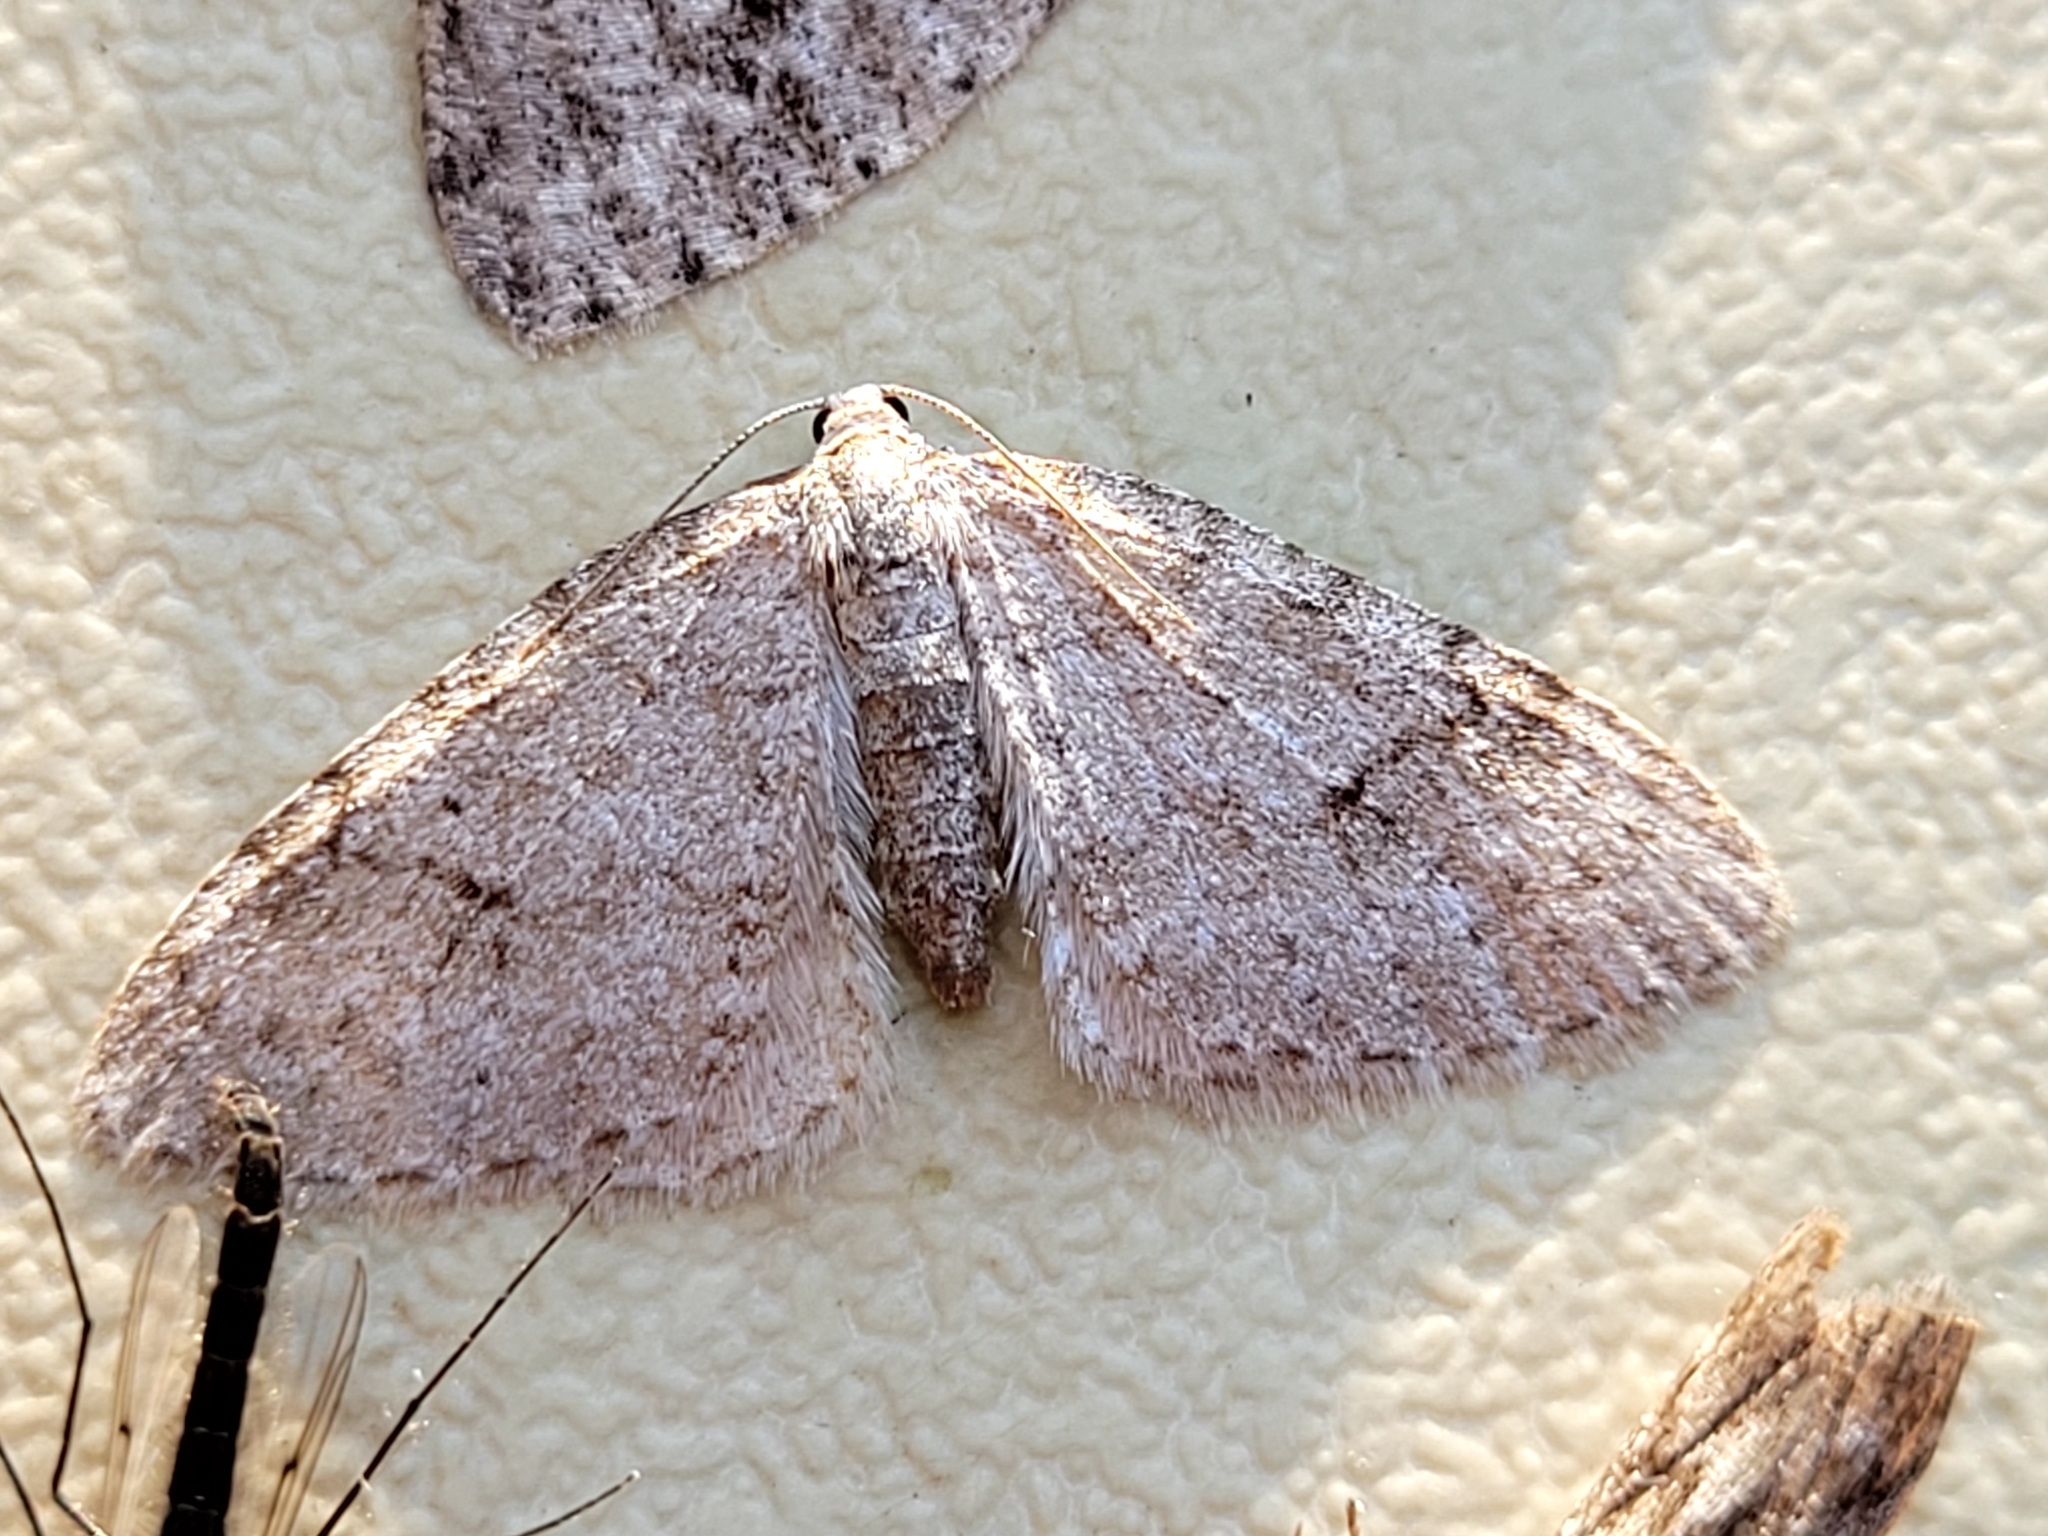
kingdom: Animalia
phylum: Arthropoda
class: Insecta
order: Lepidoptera
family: Geometridae
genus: Venusia
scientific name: Venusia comptaria
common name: Brown-shaded carpet
